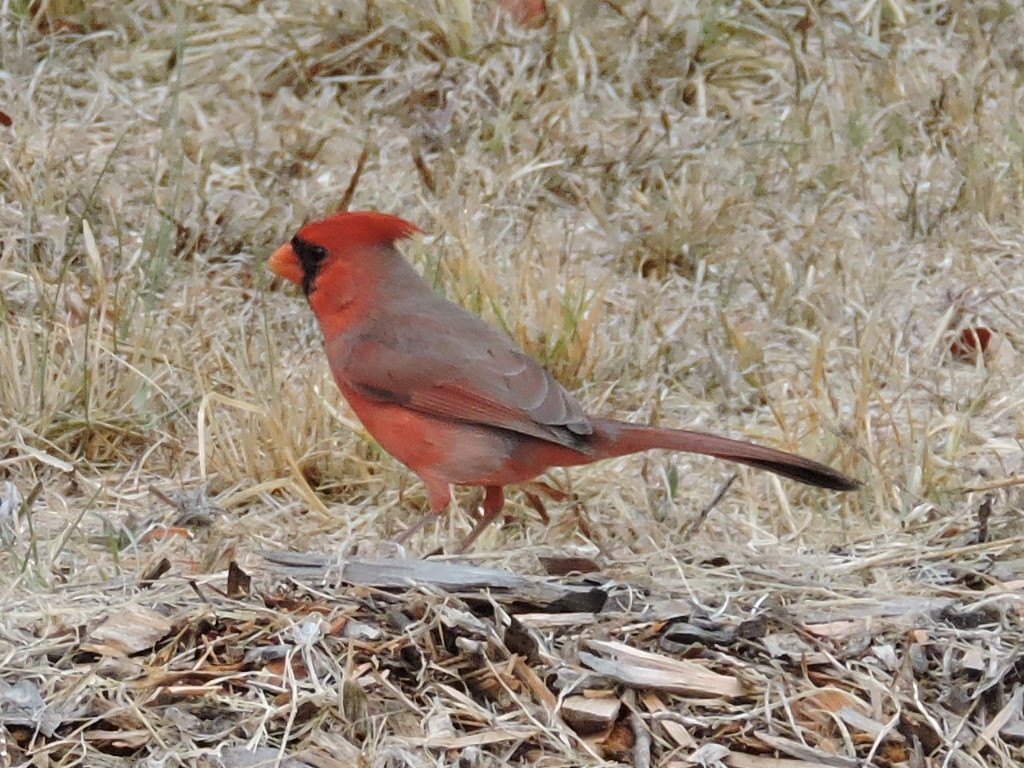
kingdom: Animalia
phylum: Chordata
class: Aves
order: Passeriformes
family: Cardinalidae
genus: Cardinalis
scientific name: Cardinalis cardinalis
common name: Northern cardinal
